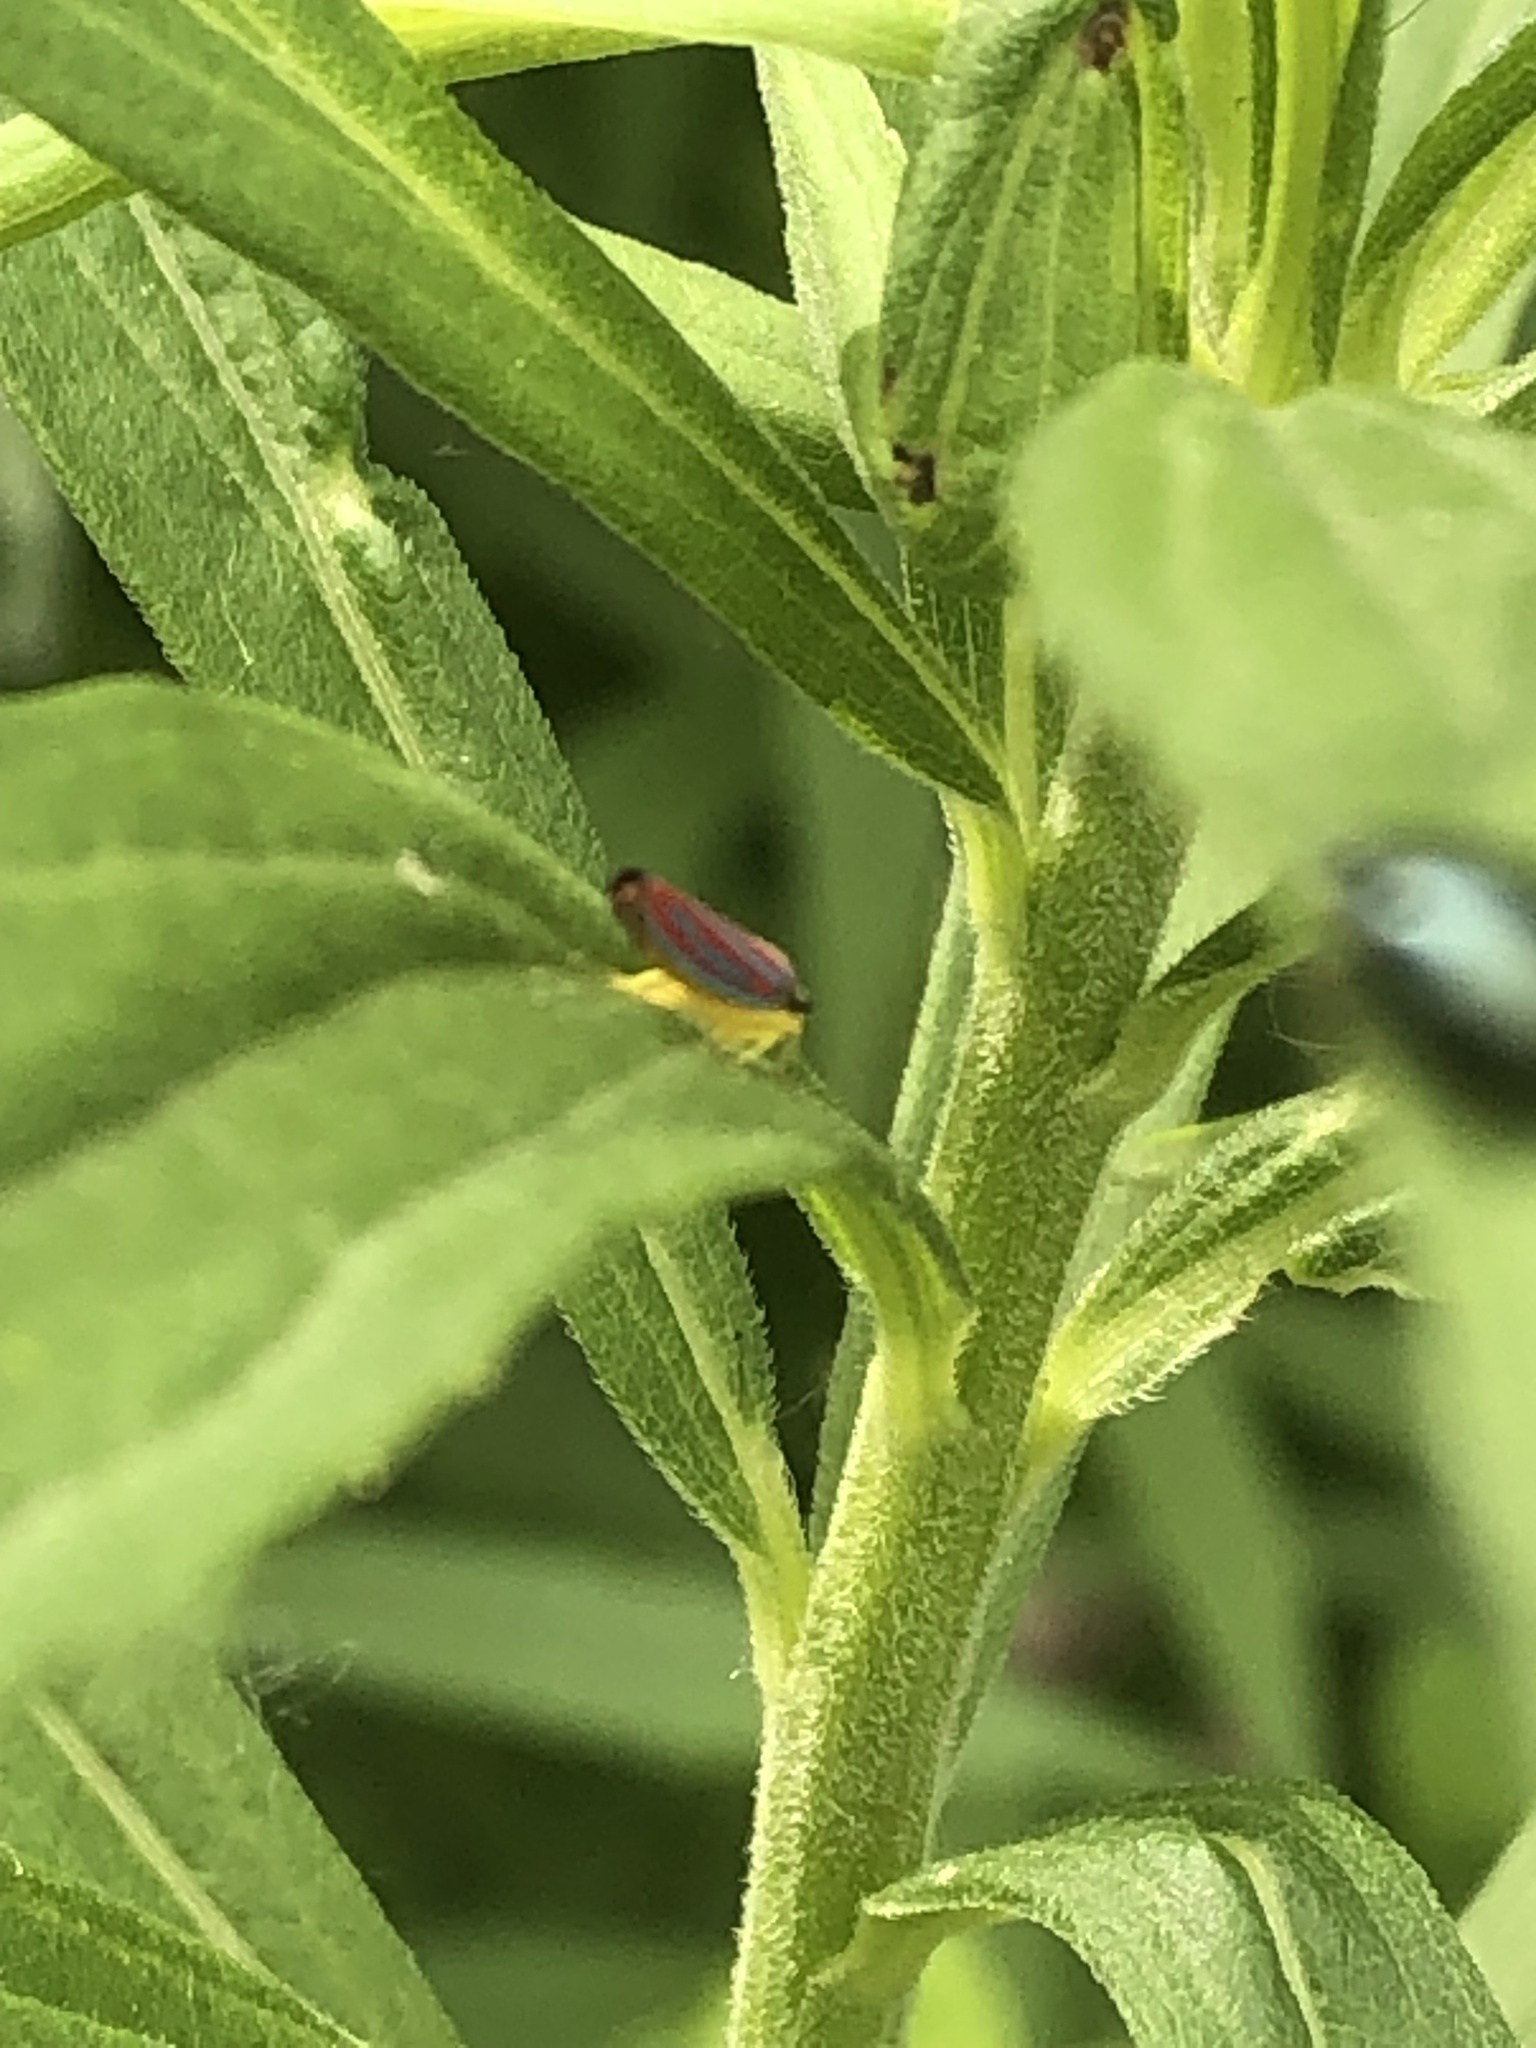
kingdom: Animalia
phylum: Arthropoda
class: Insecta
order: Hemiptera
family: Cicadellidae
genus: Graphocephala
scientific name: Graphocephala coccinea
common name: Candy-striped leafhopper
